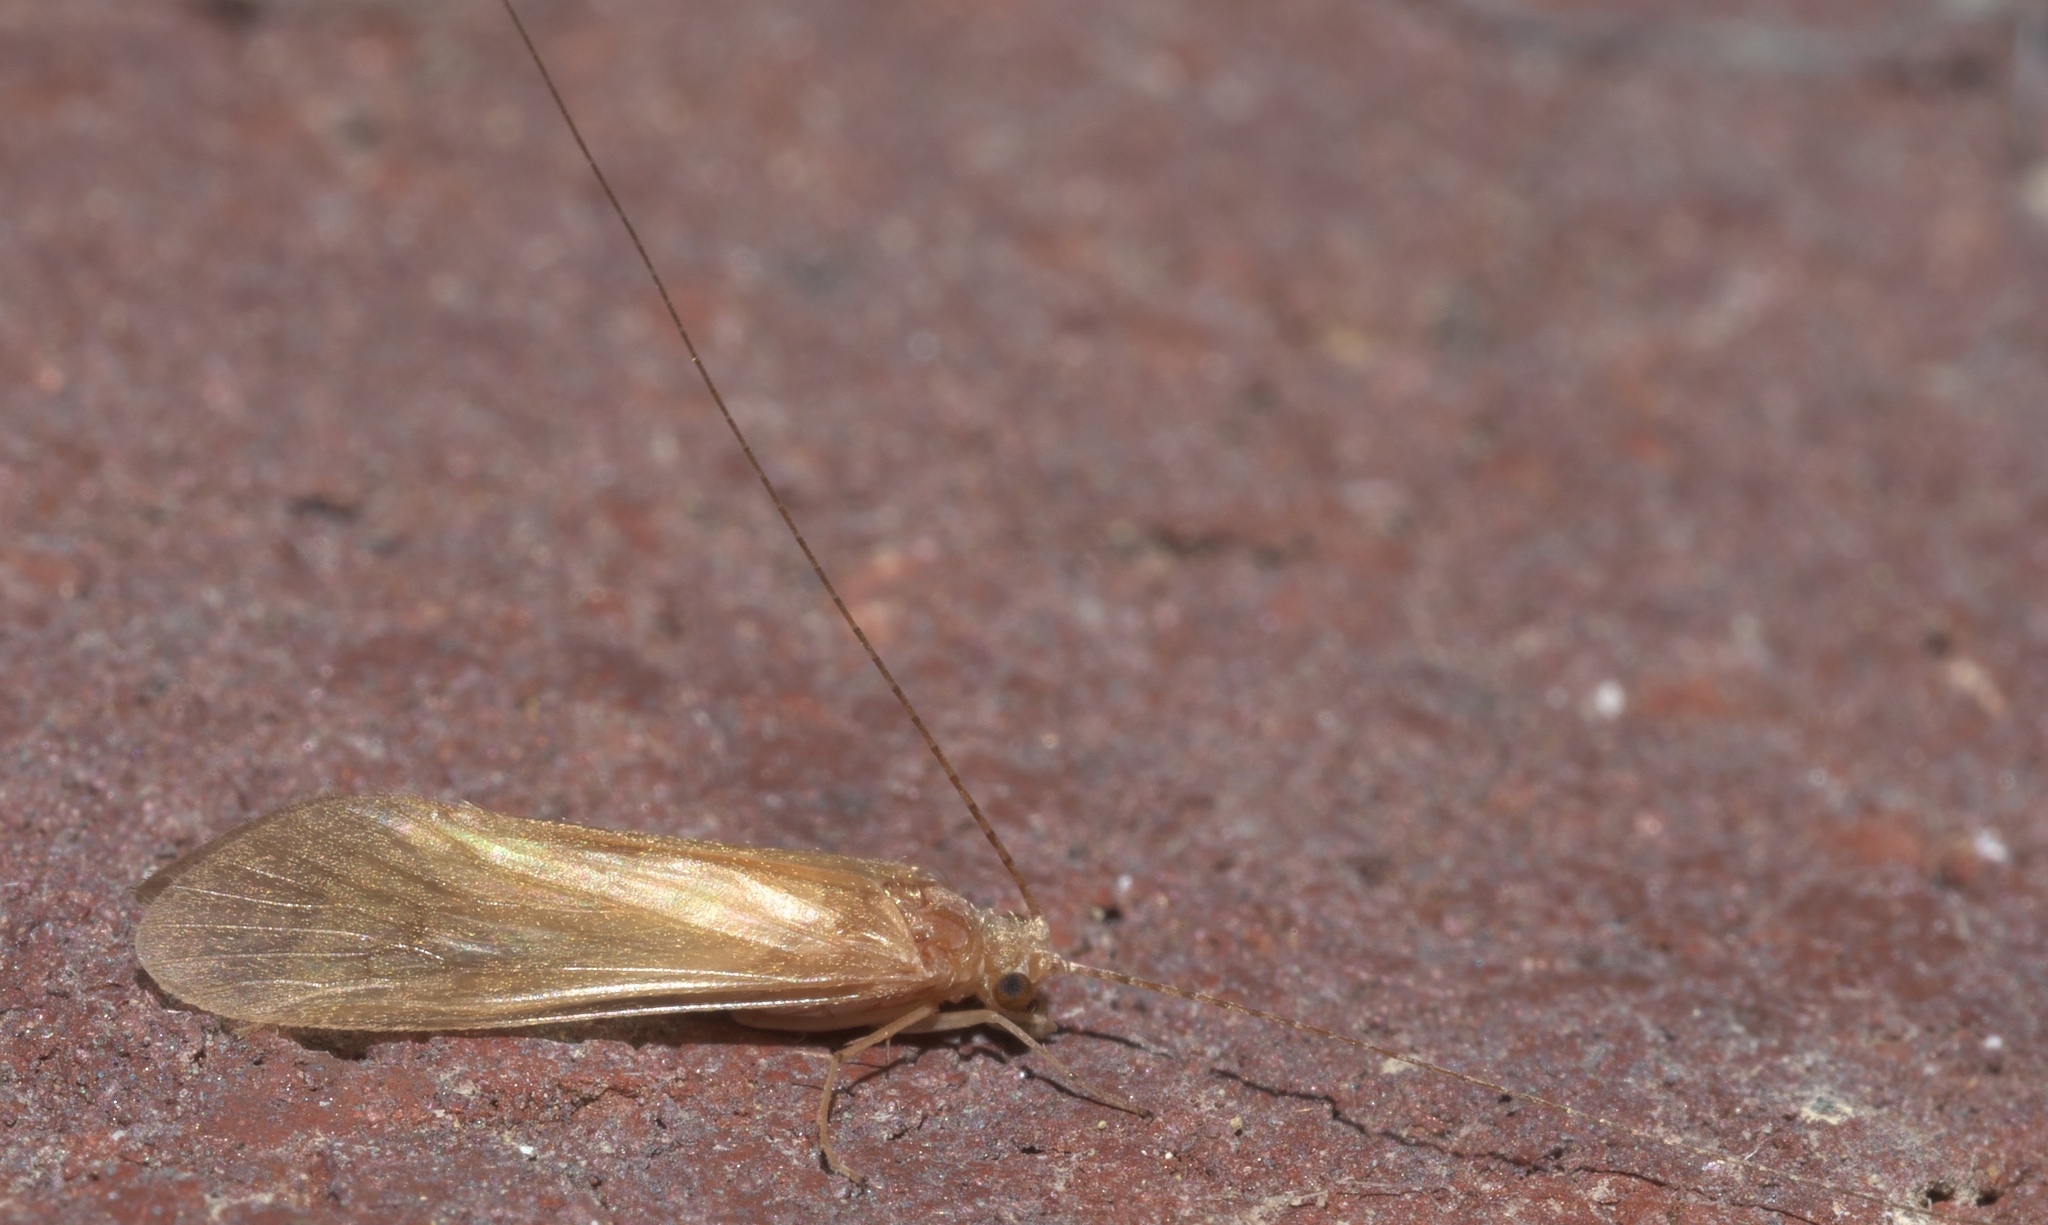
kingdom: Animalia
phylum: Arthropoda
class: Insecta
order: Trichoptera
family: Hydropsychidae
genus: Potamyia
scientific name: Potamyia flava
